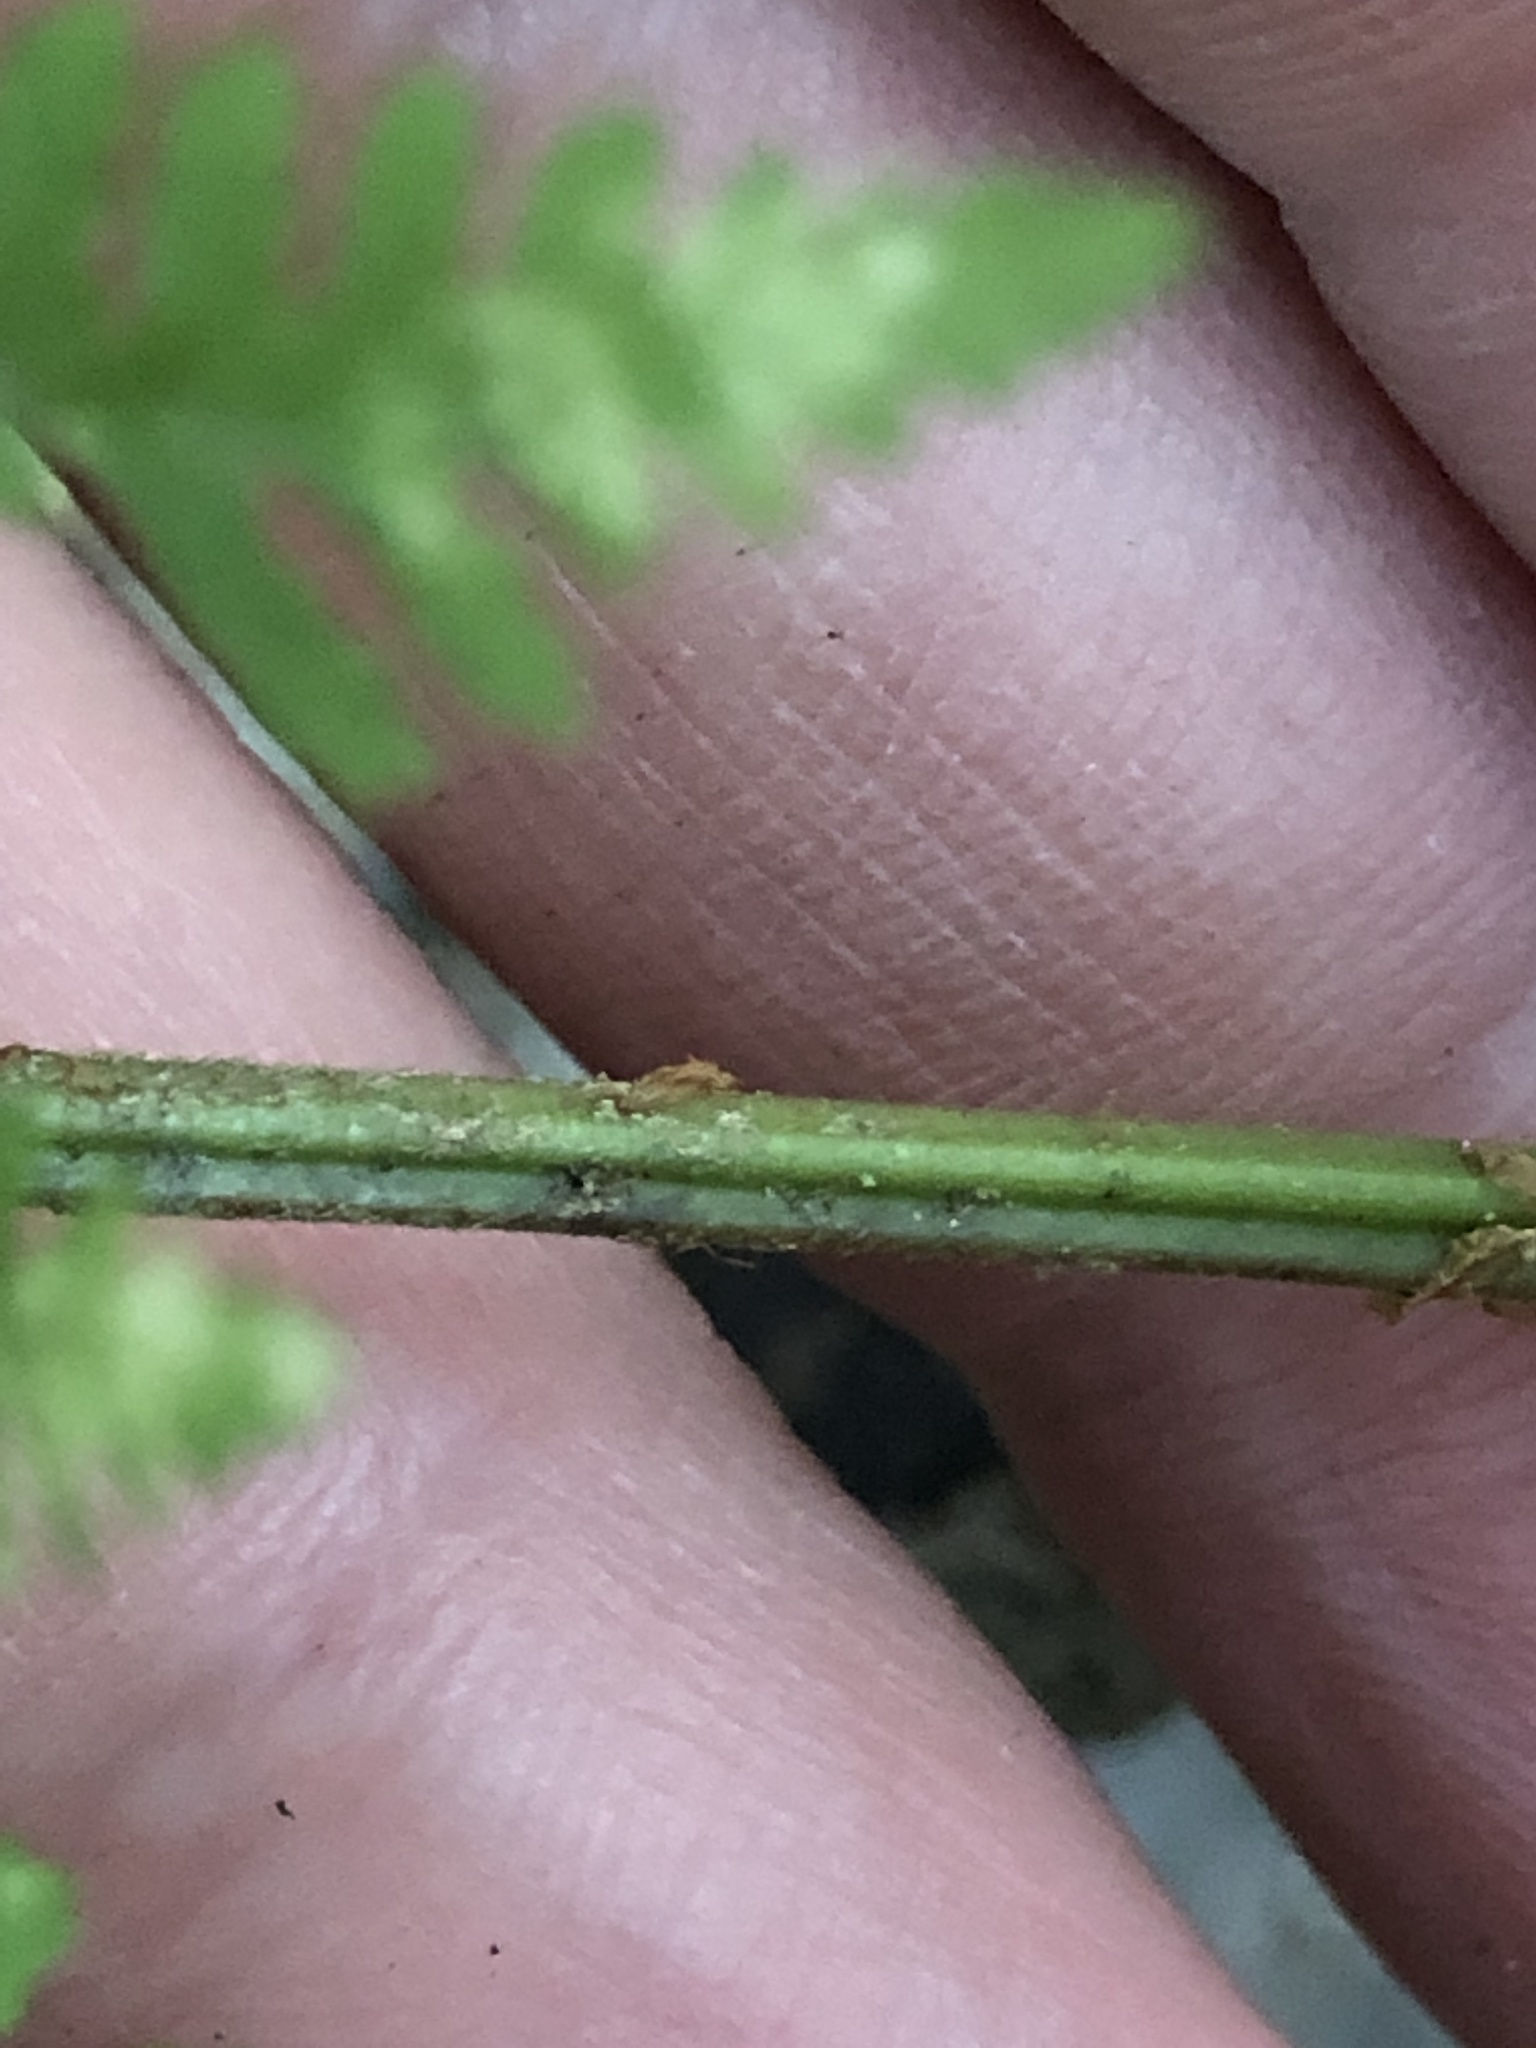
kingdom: Plantae
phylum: Tracheophyta
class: Polypodiopsida
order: Polypodiales
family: Dryopteridaceae
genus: Dryopteris
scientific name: Dryopteris intermedia
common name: Evergreen wood fern
